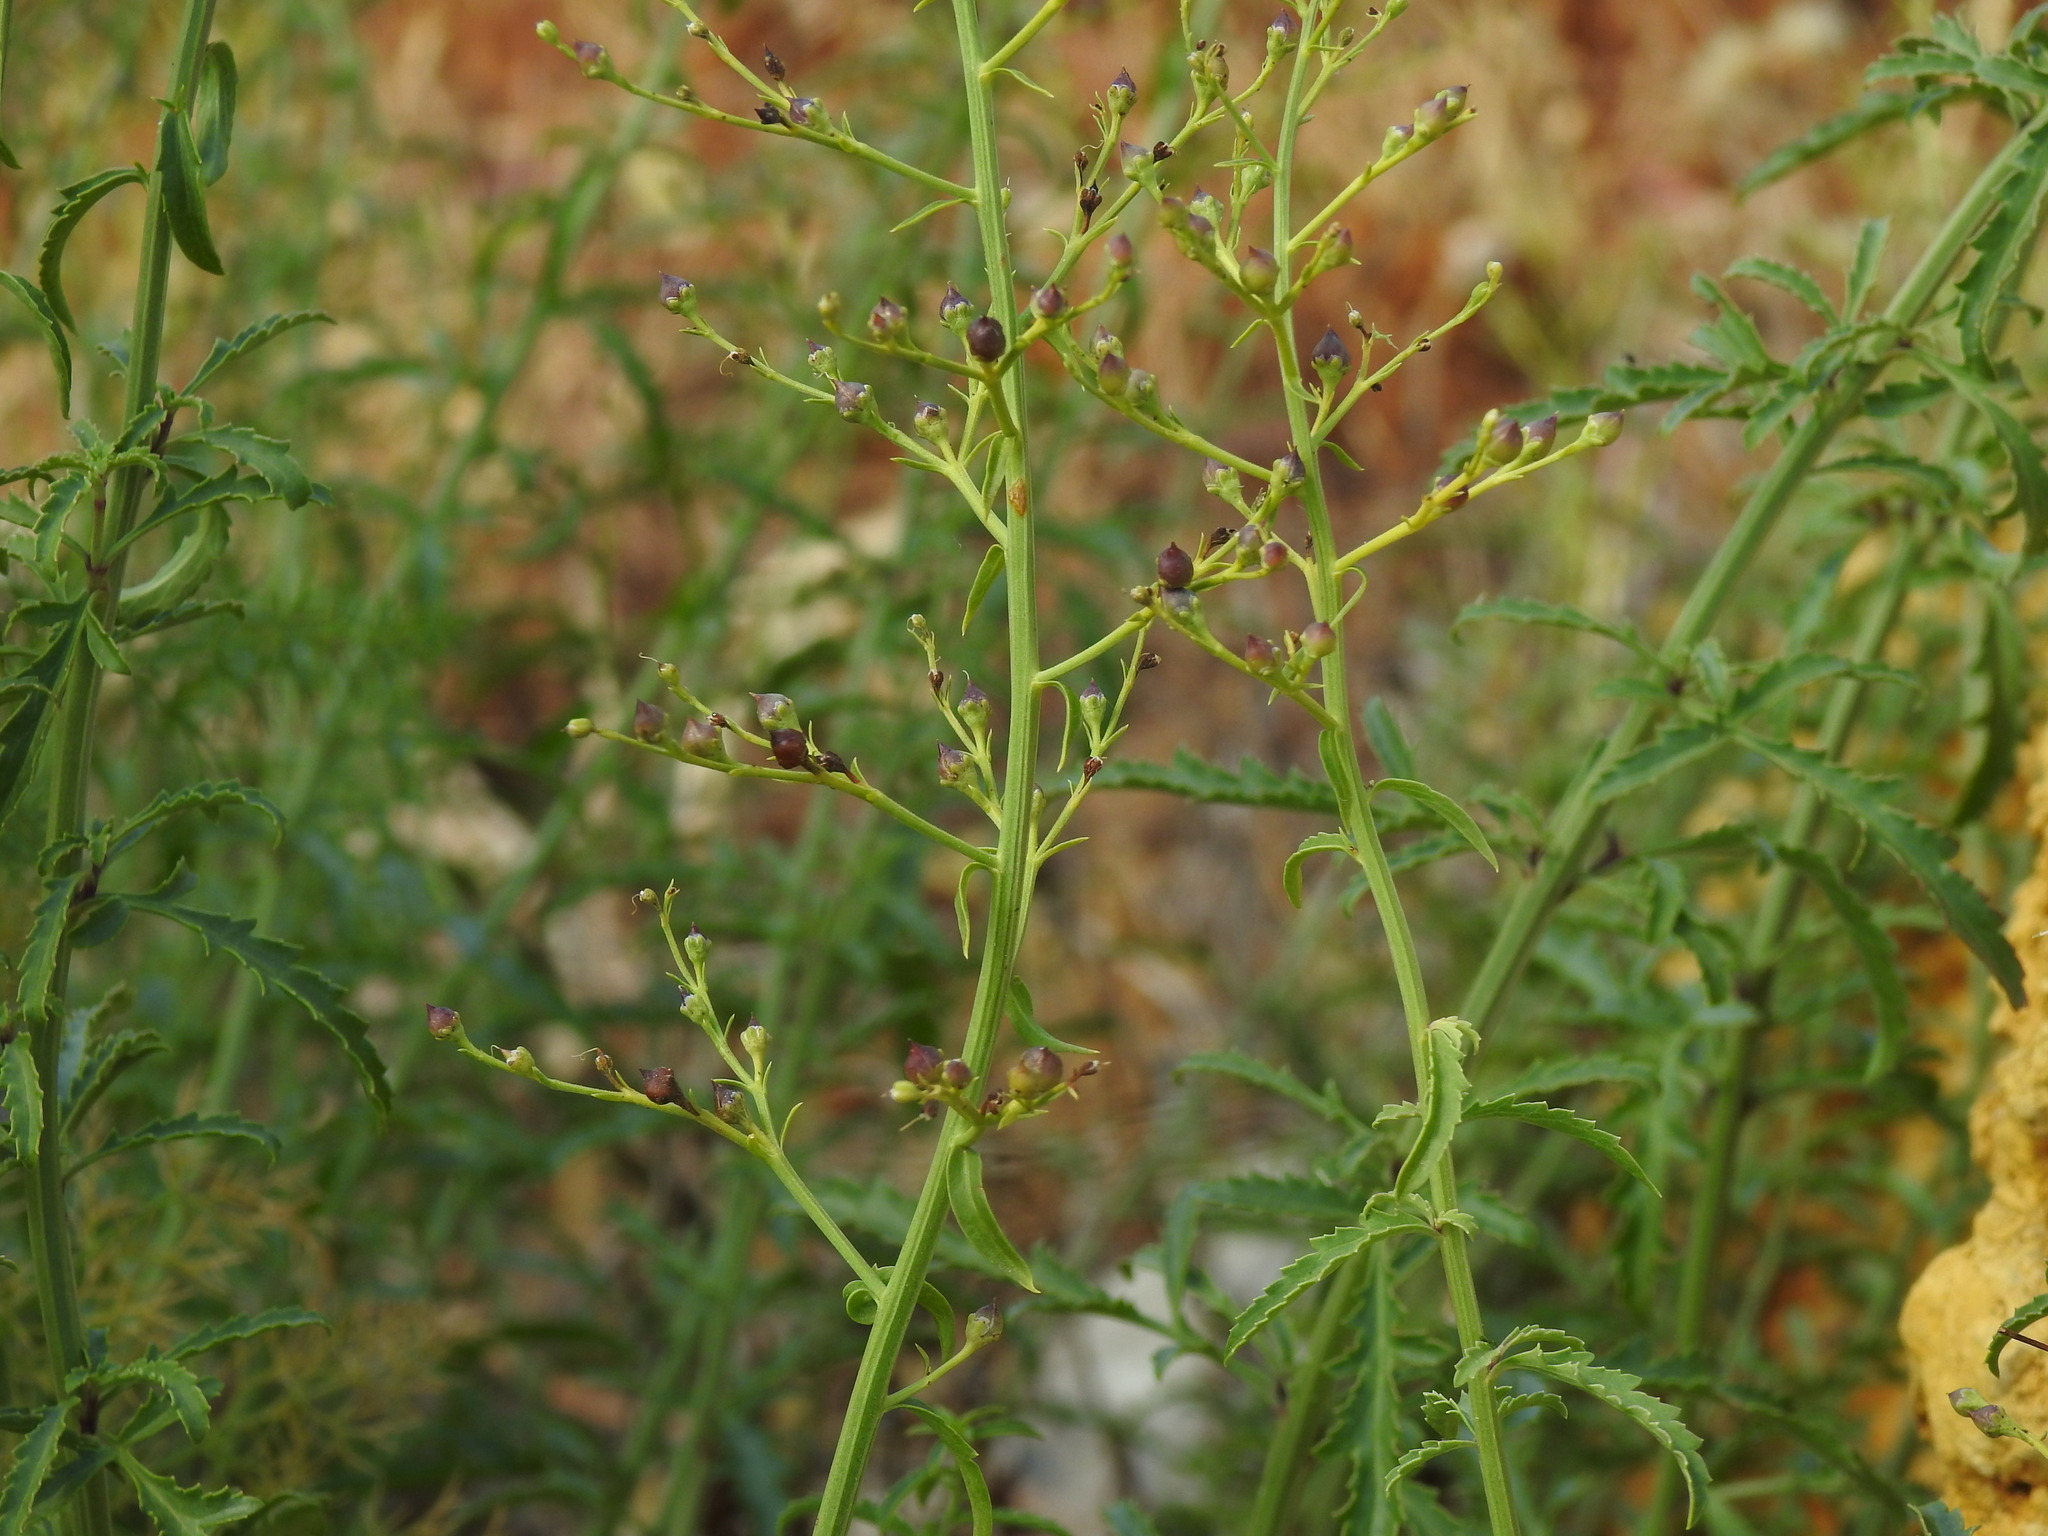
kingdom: Plantae
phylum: Tracheophyta
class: Magnoliopsida
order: Lamiales
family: Scrophulariaceae
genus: Scrophularia
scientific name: Scrophularia canina
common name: French figwort
